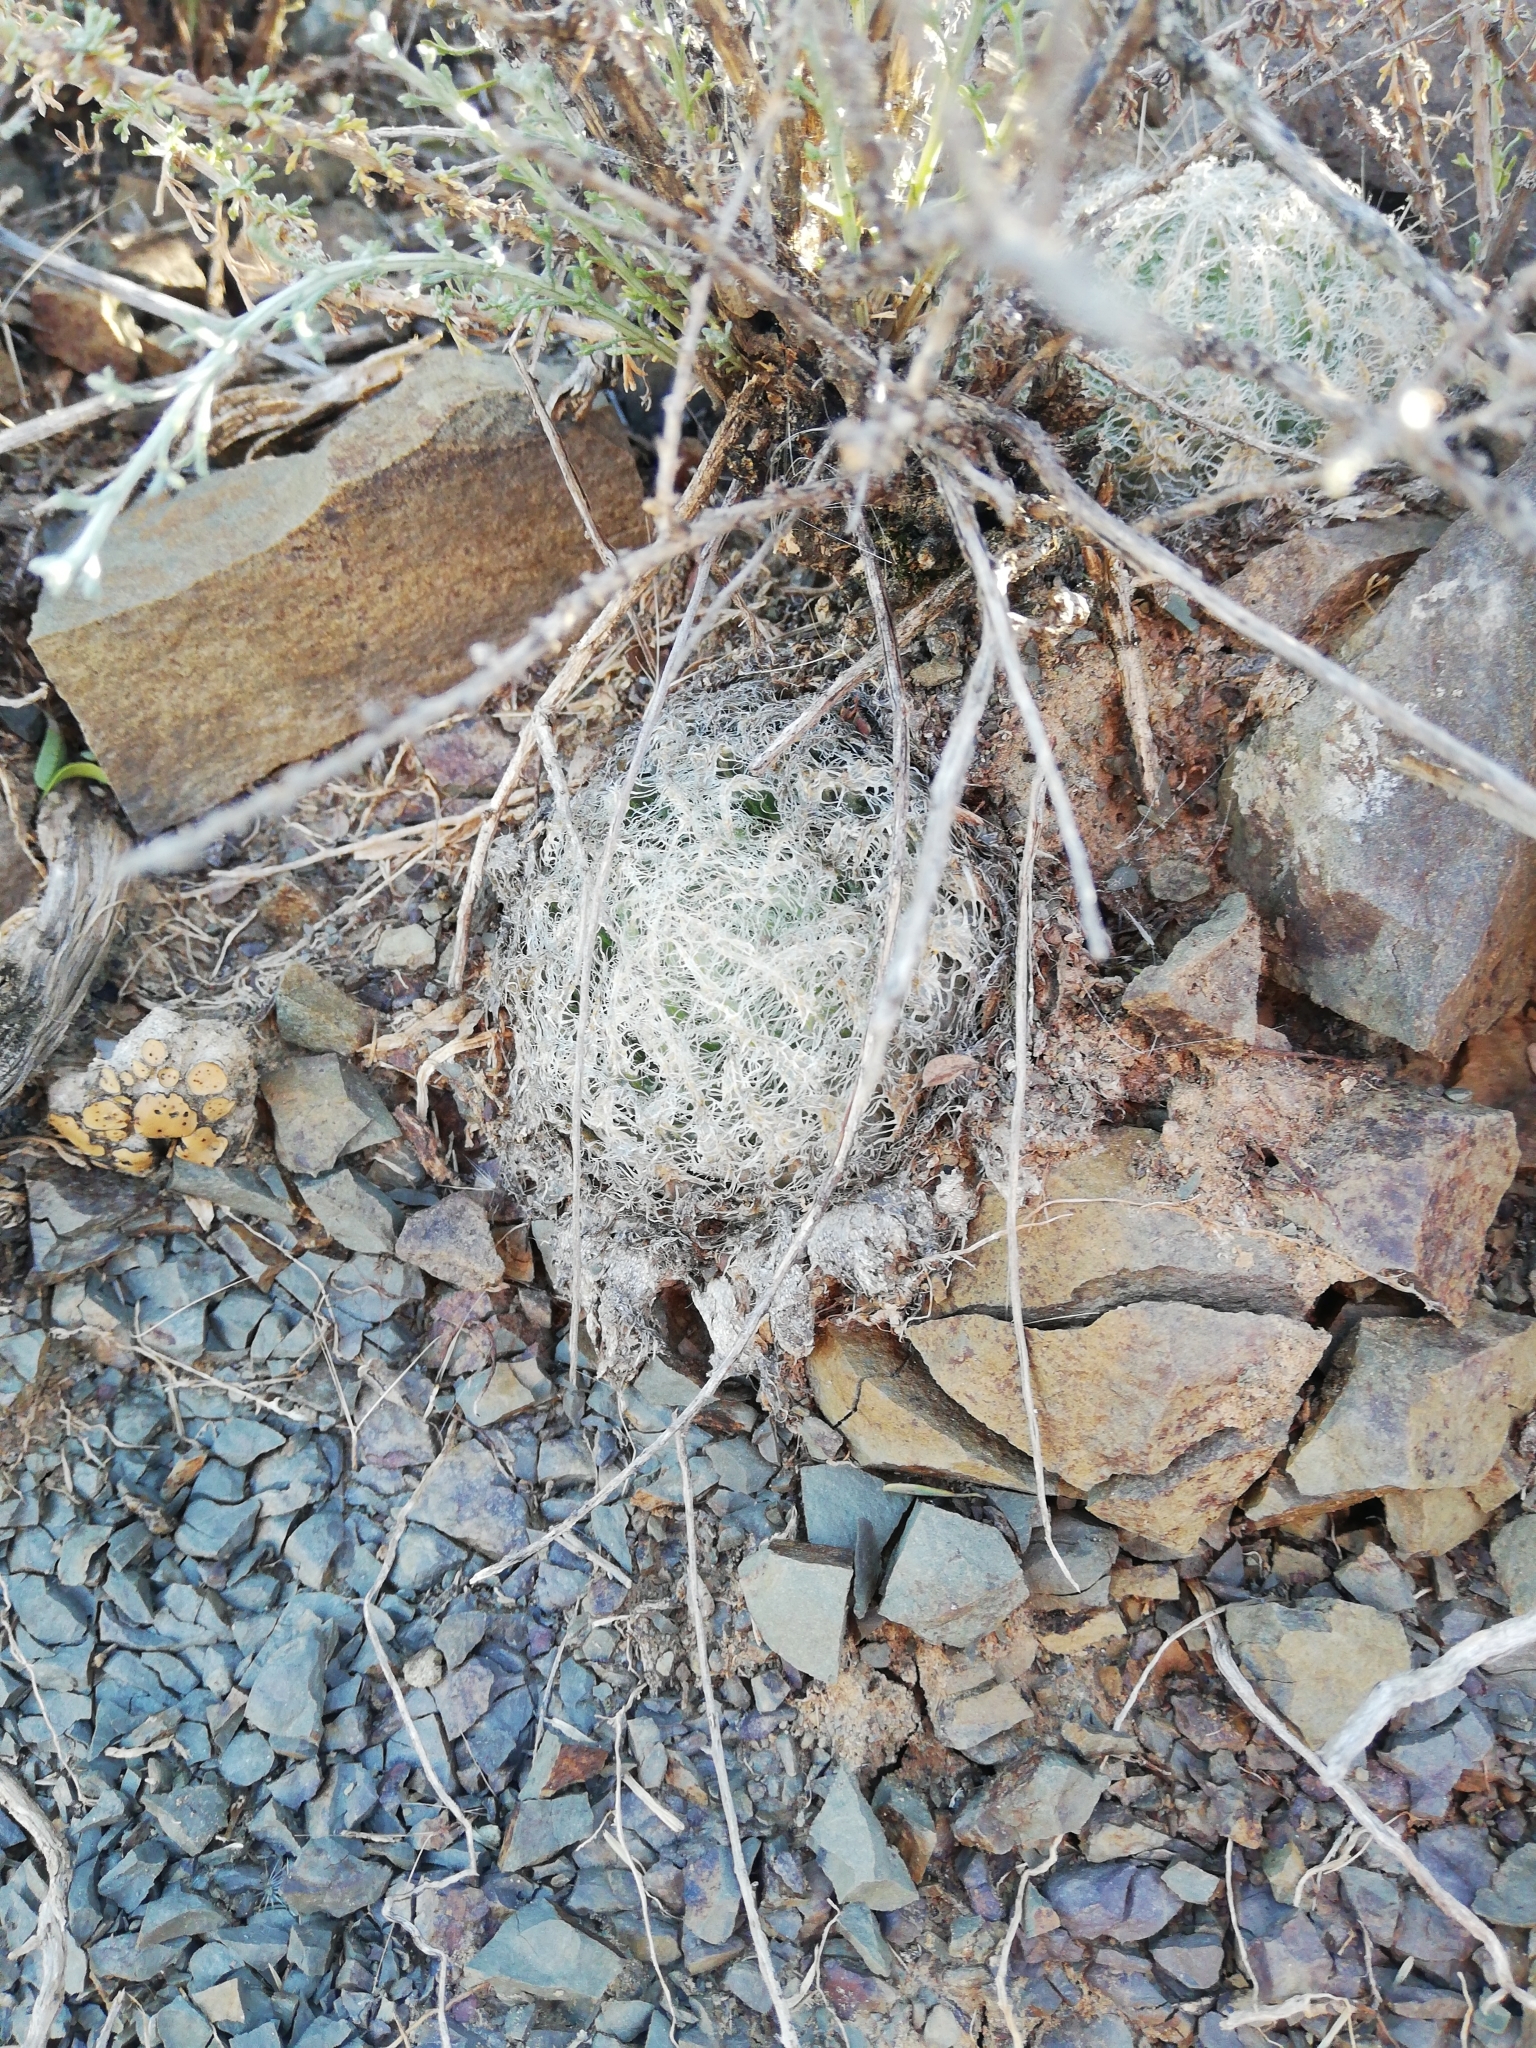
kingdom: Plantae
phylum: Tracheophyta
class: Liliopsida
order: Asparagales
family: Asphodelaceae
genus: Haworthia
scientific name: Haworthia bolusii
